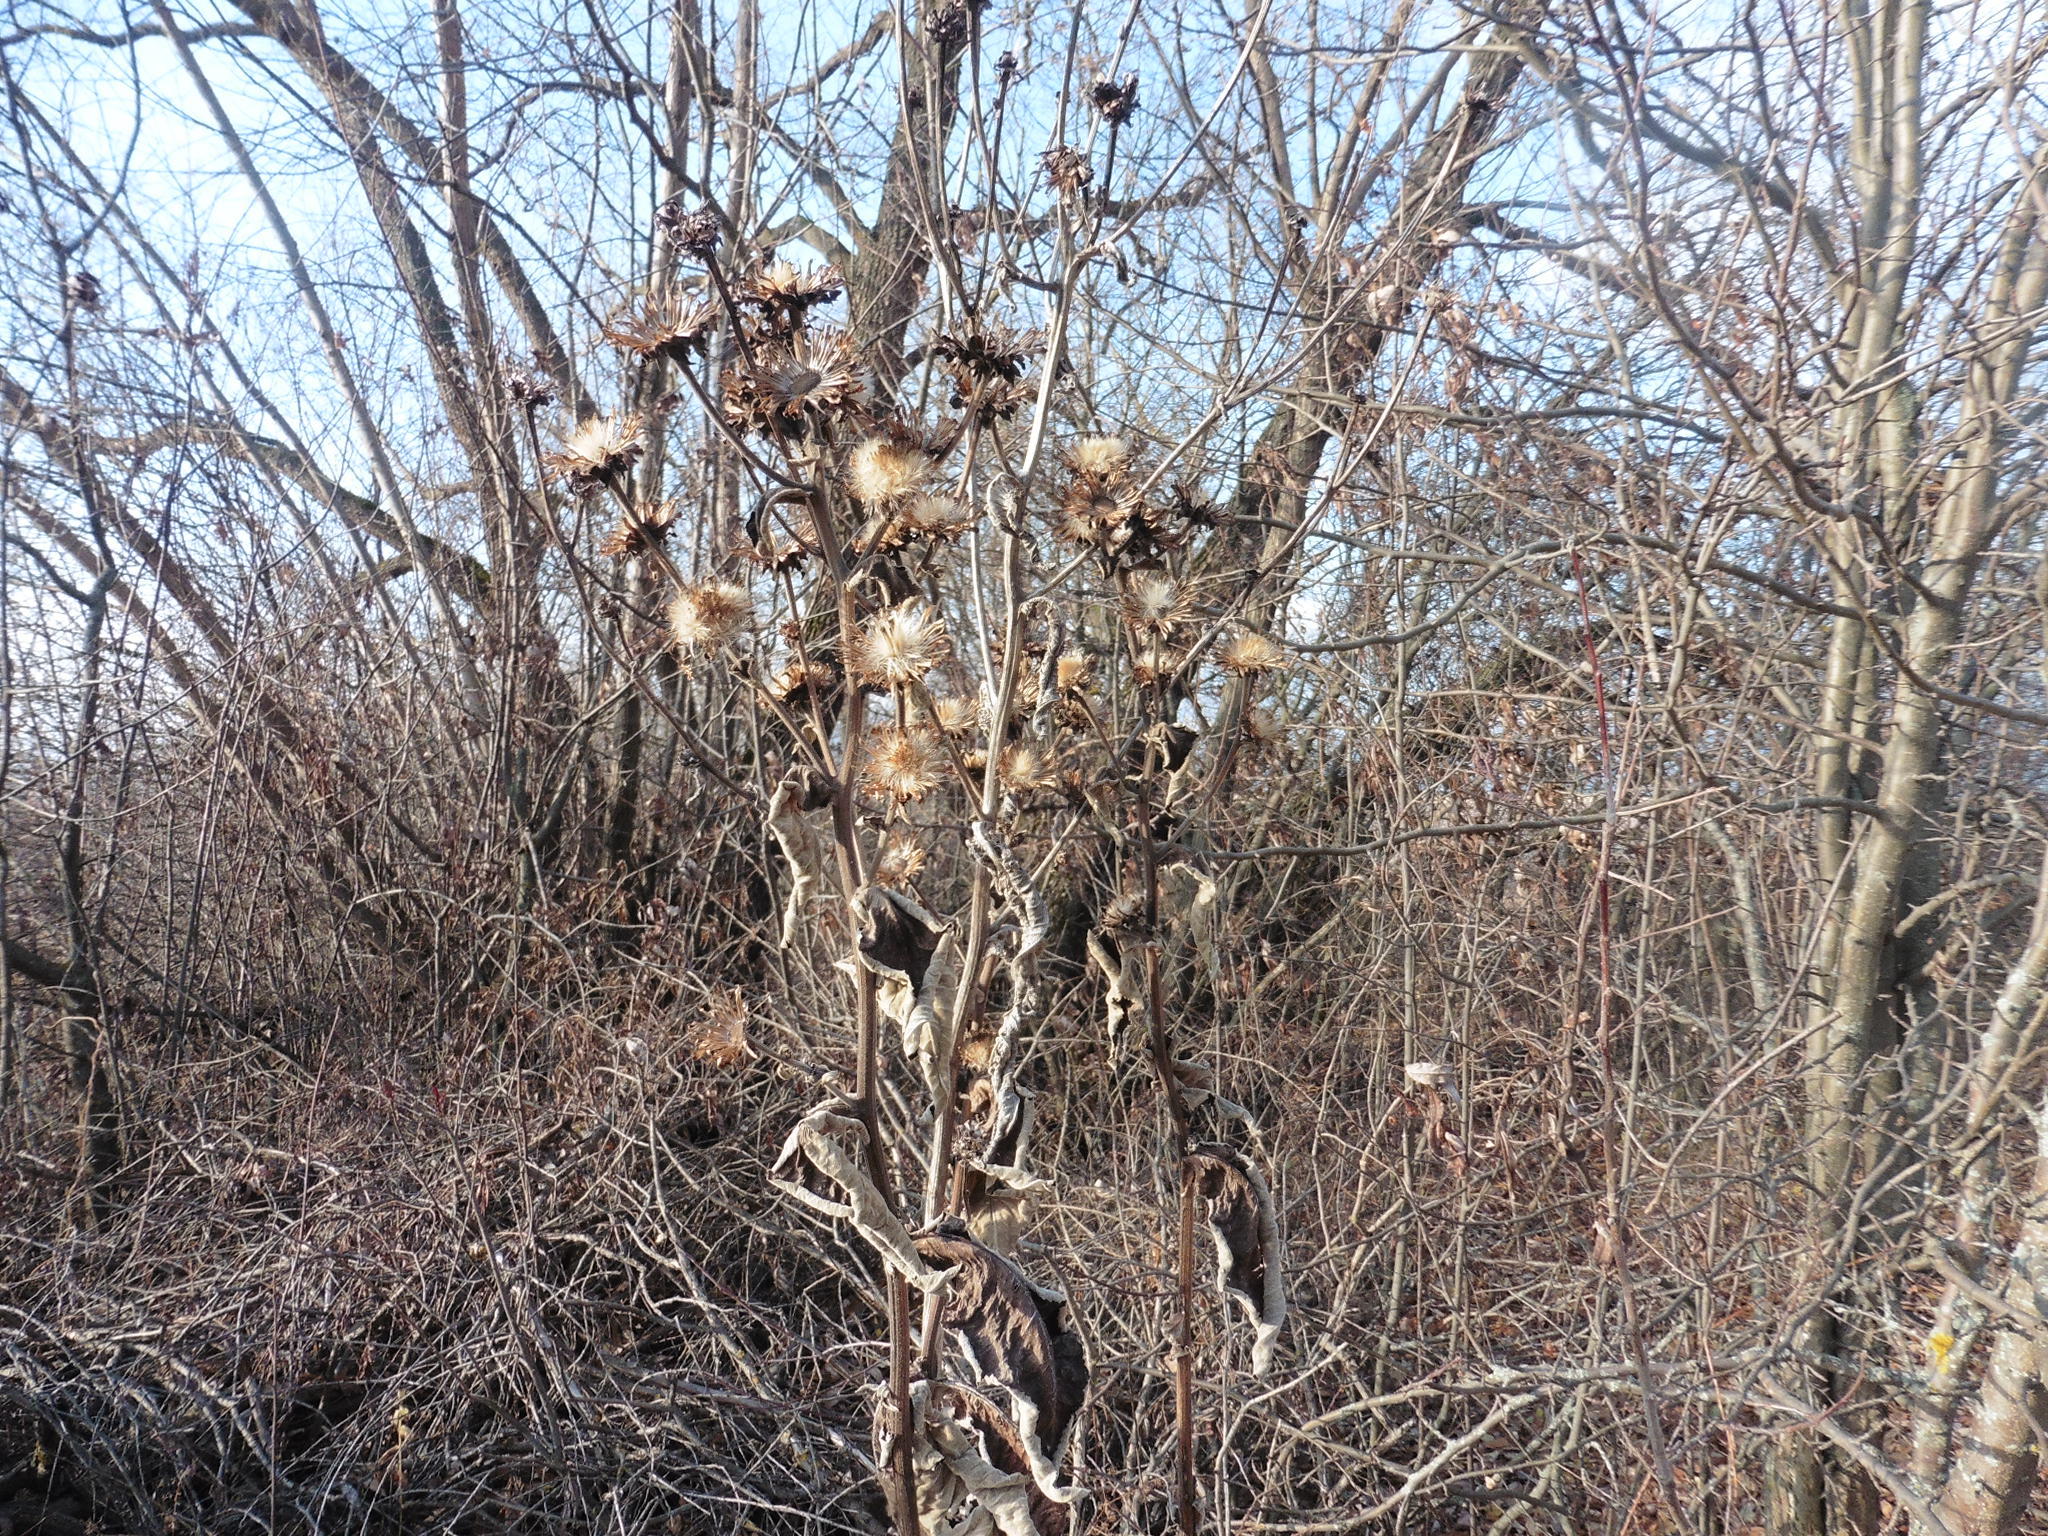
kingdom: Plantae
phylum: Tracheophyta
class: Magnoliopsida
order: Asterales
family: Asteraceae
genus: Inula
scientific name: Inula helenium
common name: Elecampane
